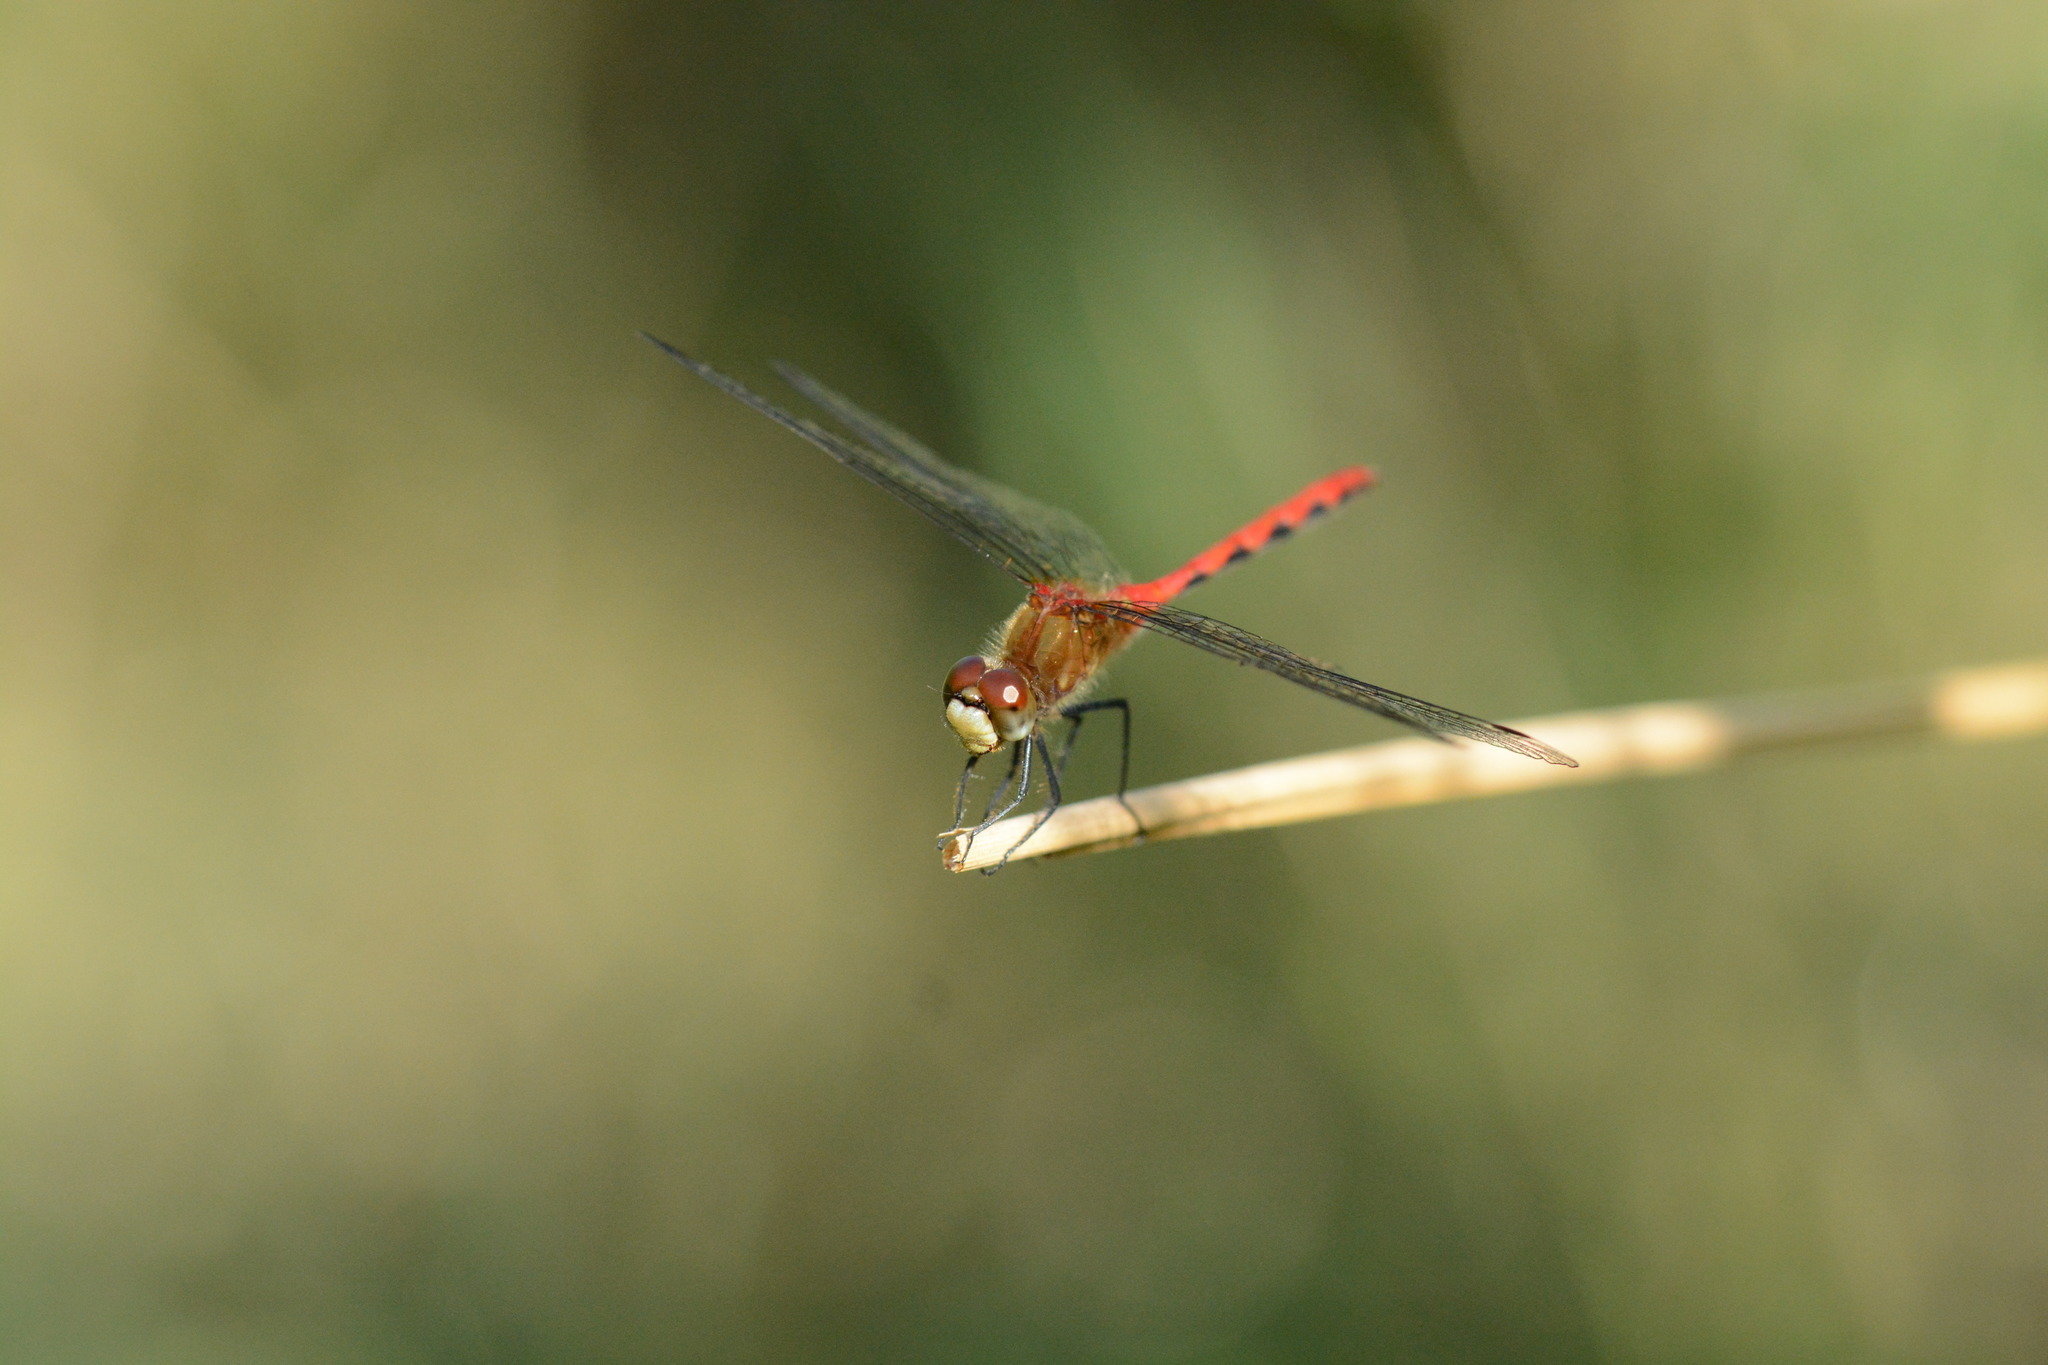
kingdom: Animalia
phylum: Arthropoda
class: Insecta
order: Odonata
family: Libellulidae
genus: Sympetrum
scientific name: Sympetrum obtrusum
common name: White-faced meadowhawk
